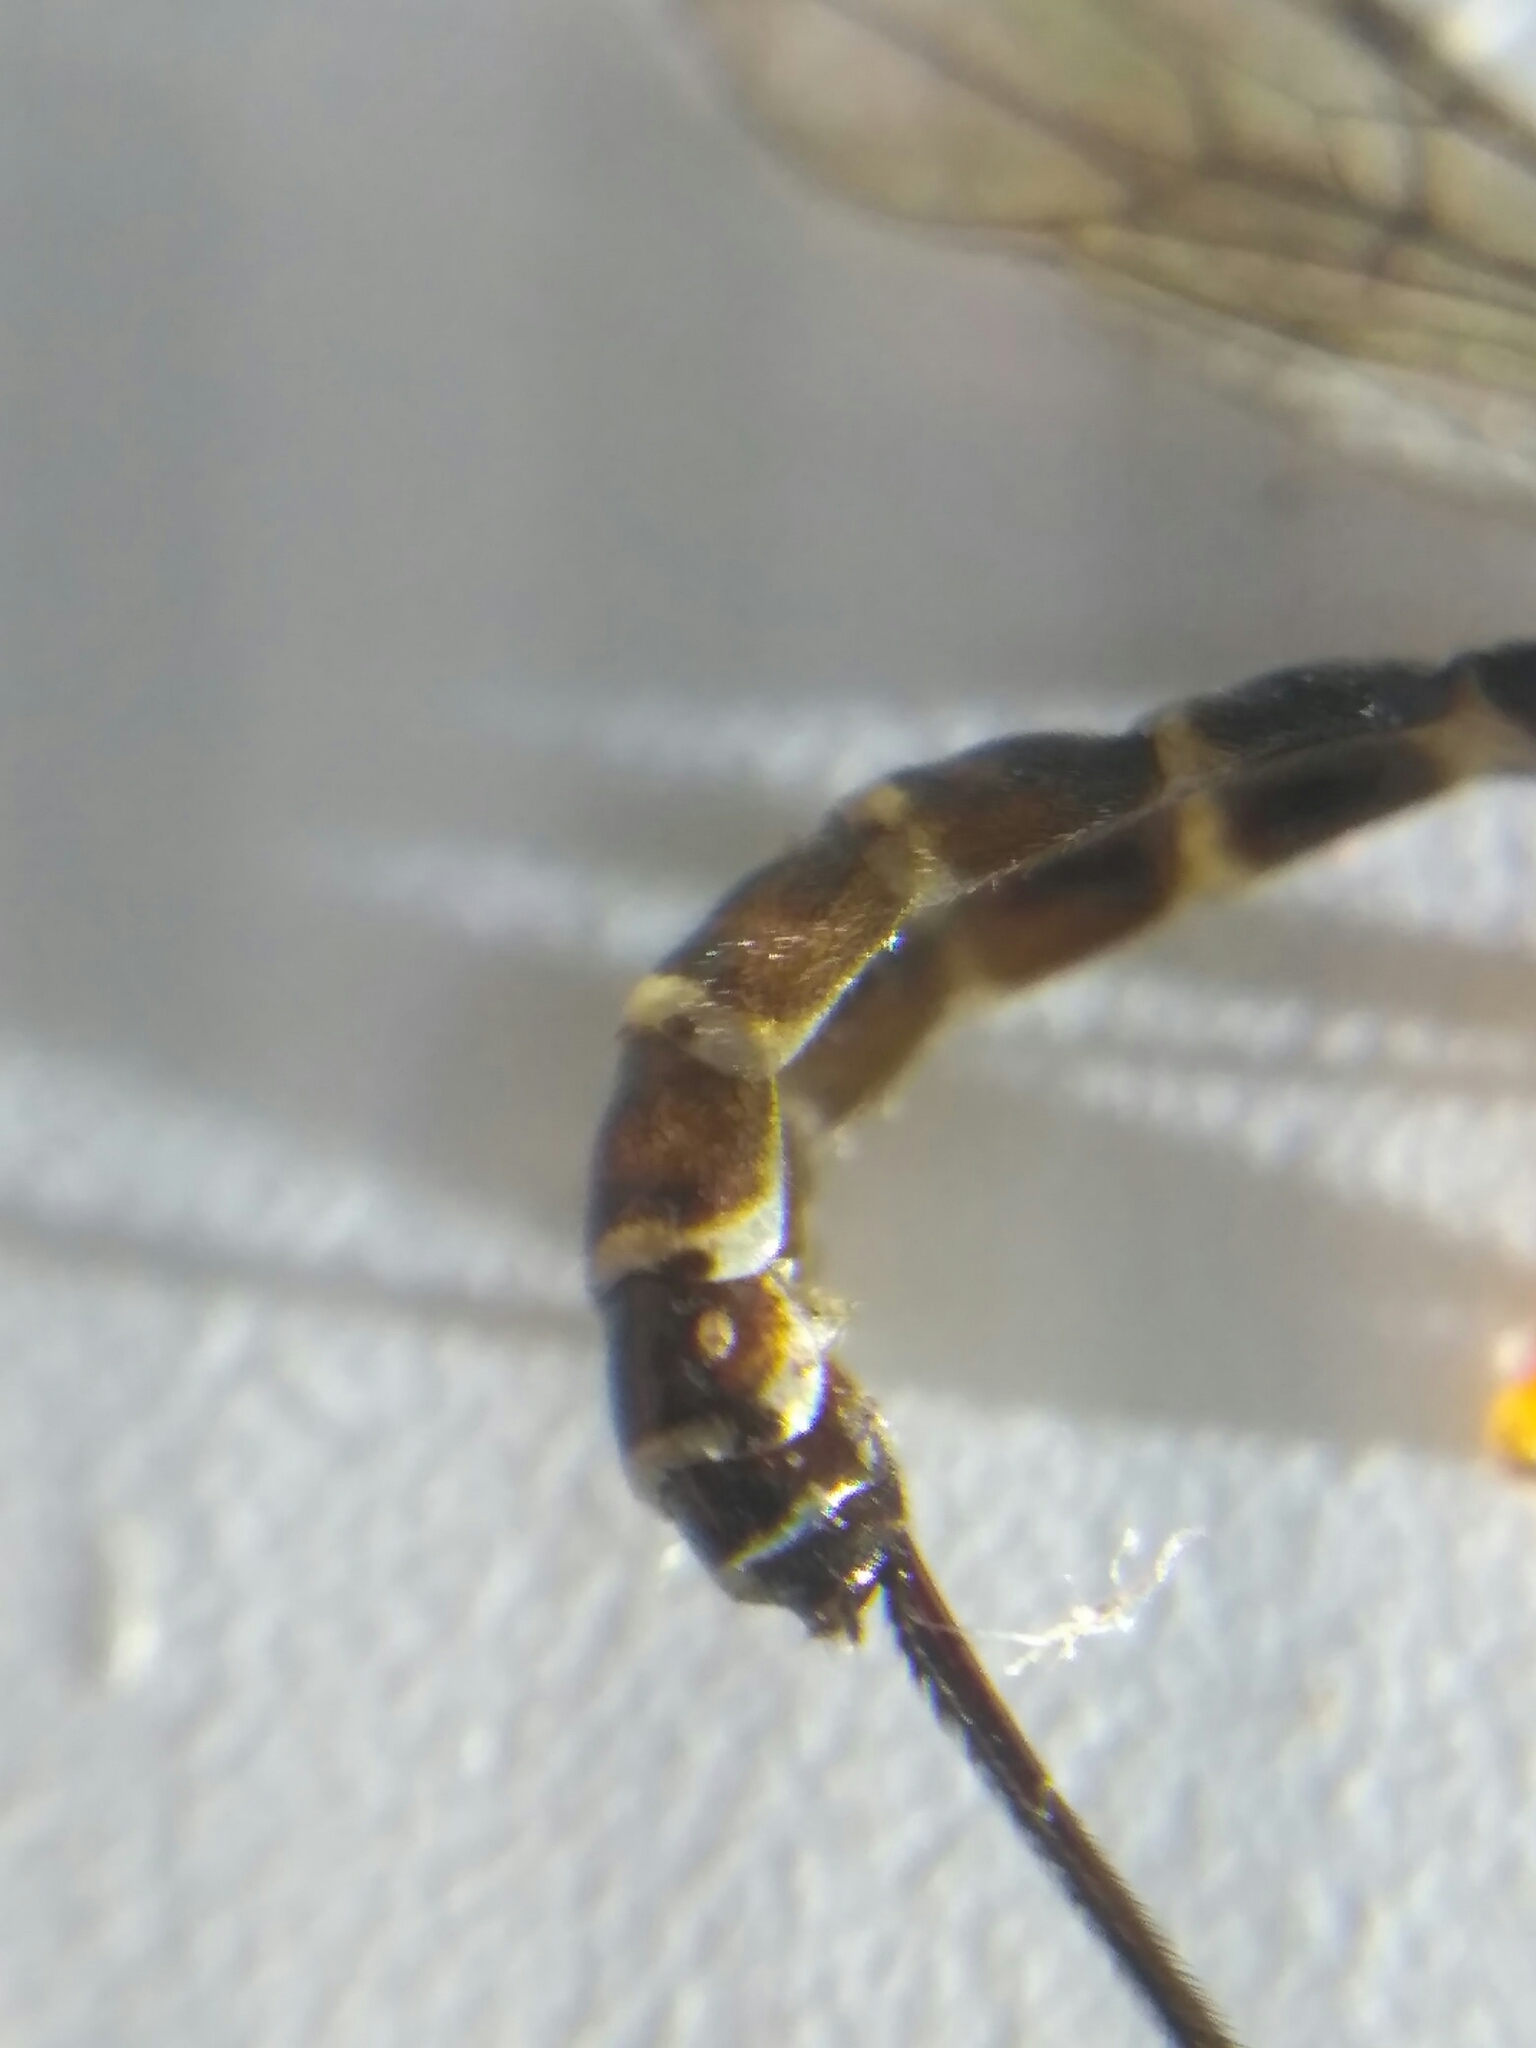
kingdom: Animalia
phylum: Arthropoda
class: Insecta
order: Hymenoptera
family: Ichneumonidae
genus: Perithous
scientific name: Perithous septemcinctorius
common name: Ichneumonid wasp
